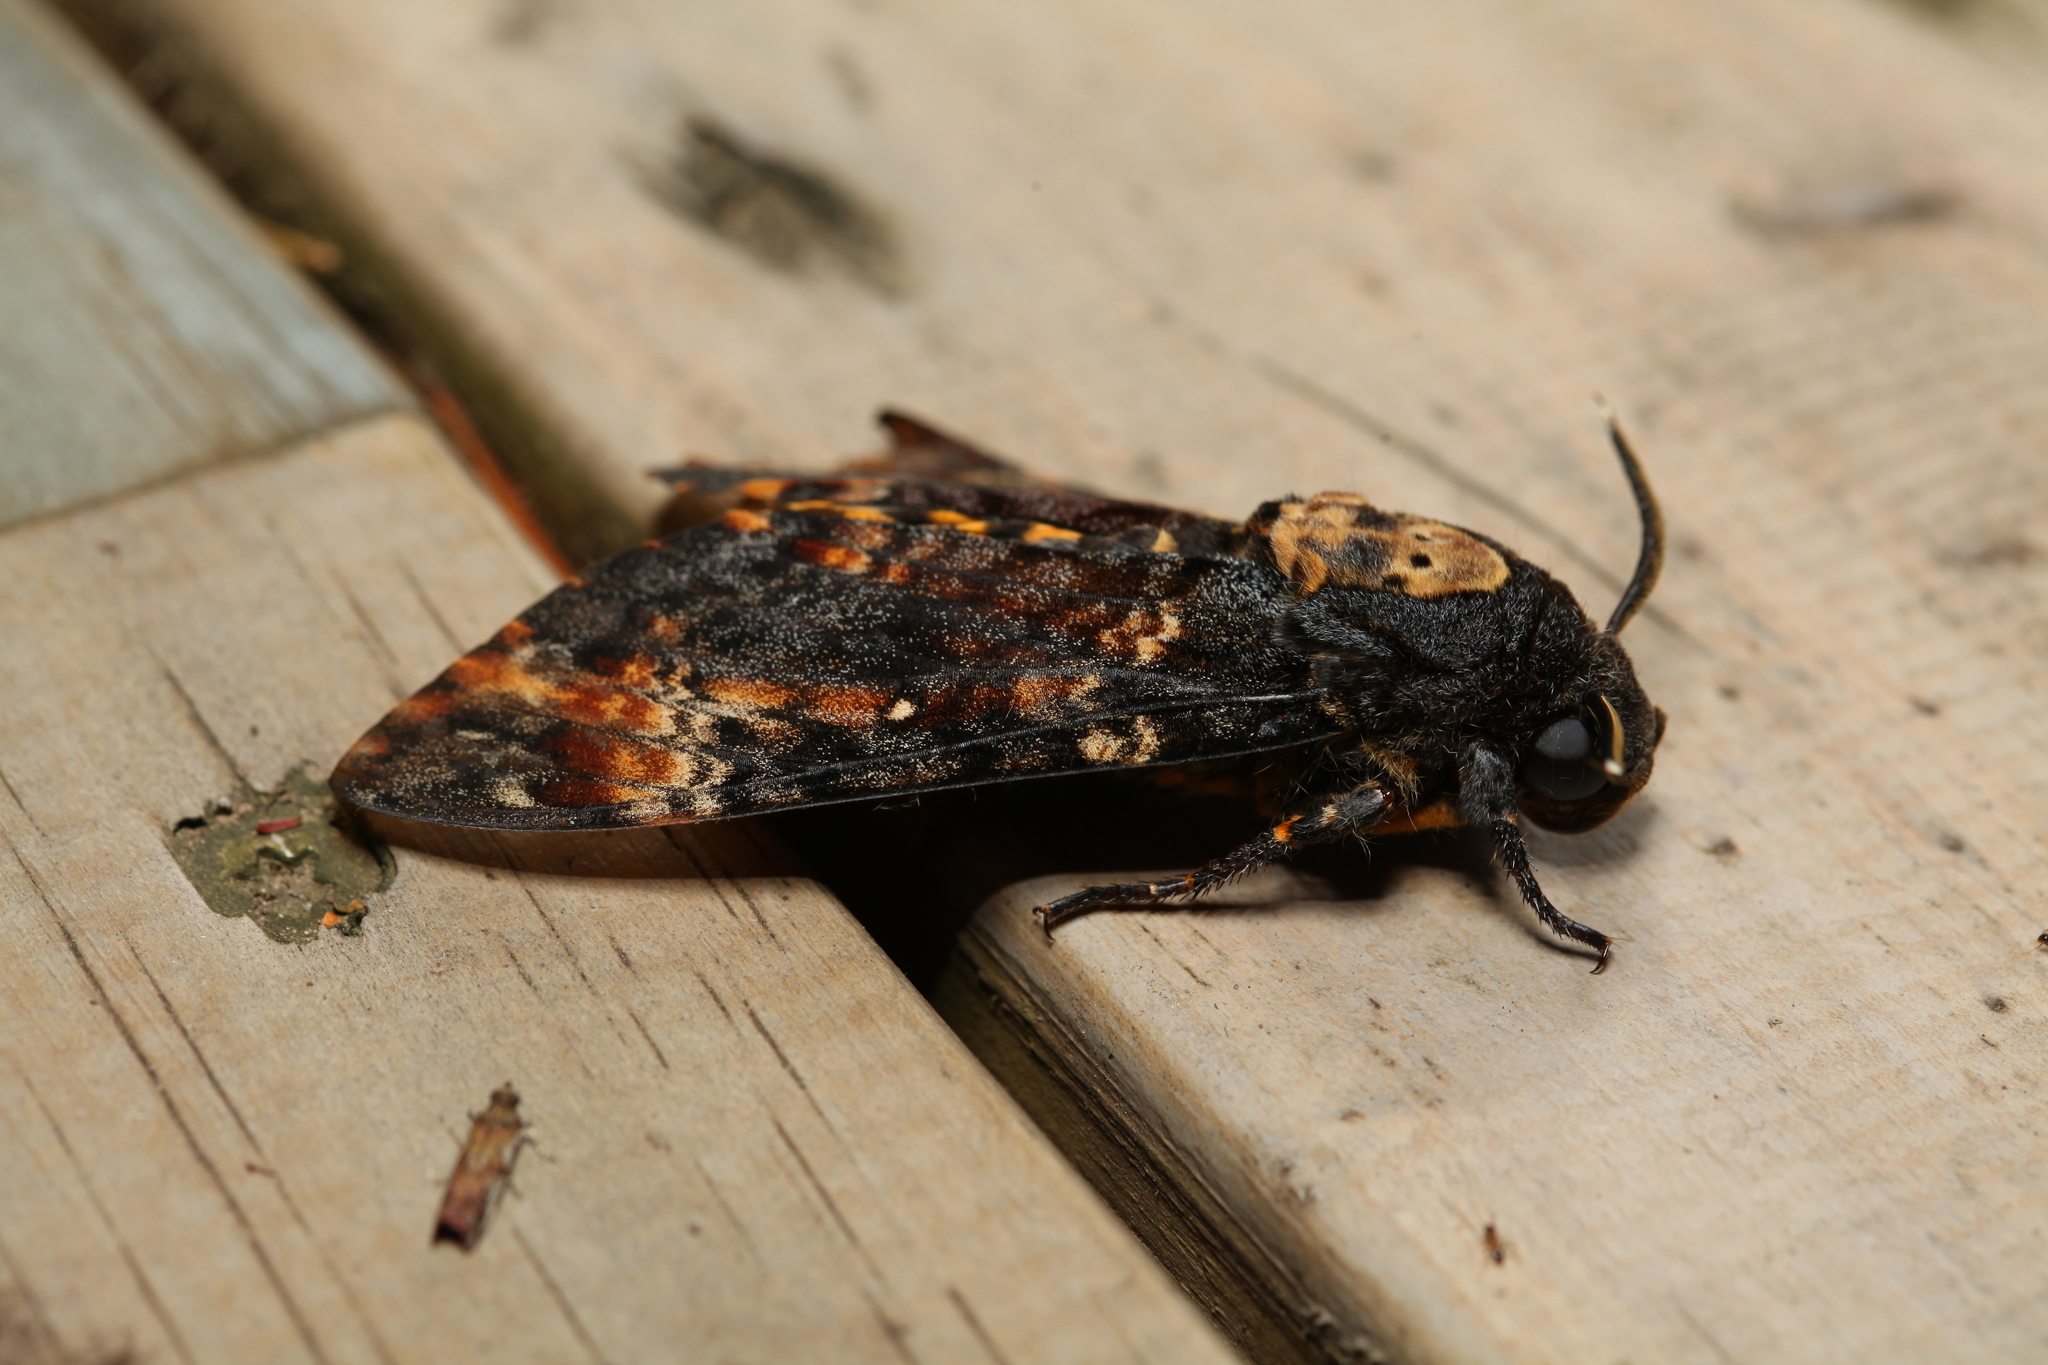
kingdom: Animalia
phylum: Arthropoda
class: Insecta
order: Lepidoptera
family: Sphingidae
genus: Acherontia
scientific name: Acherontia atropos
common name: Death's-head hawk moth
